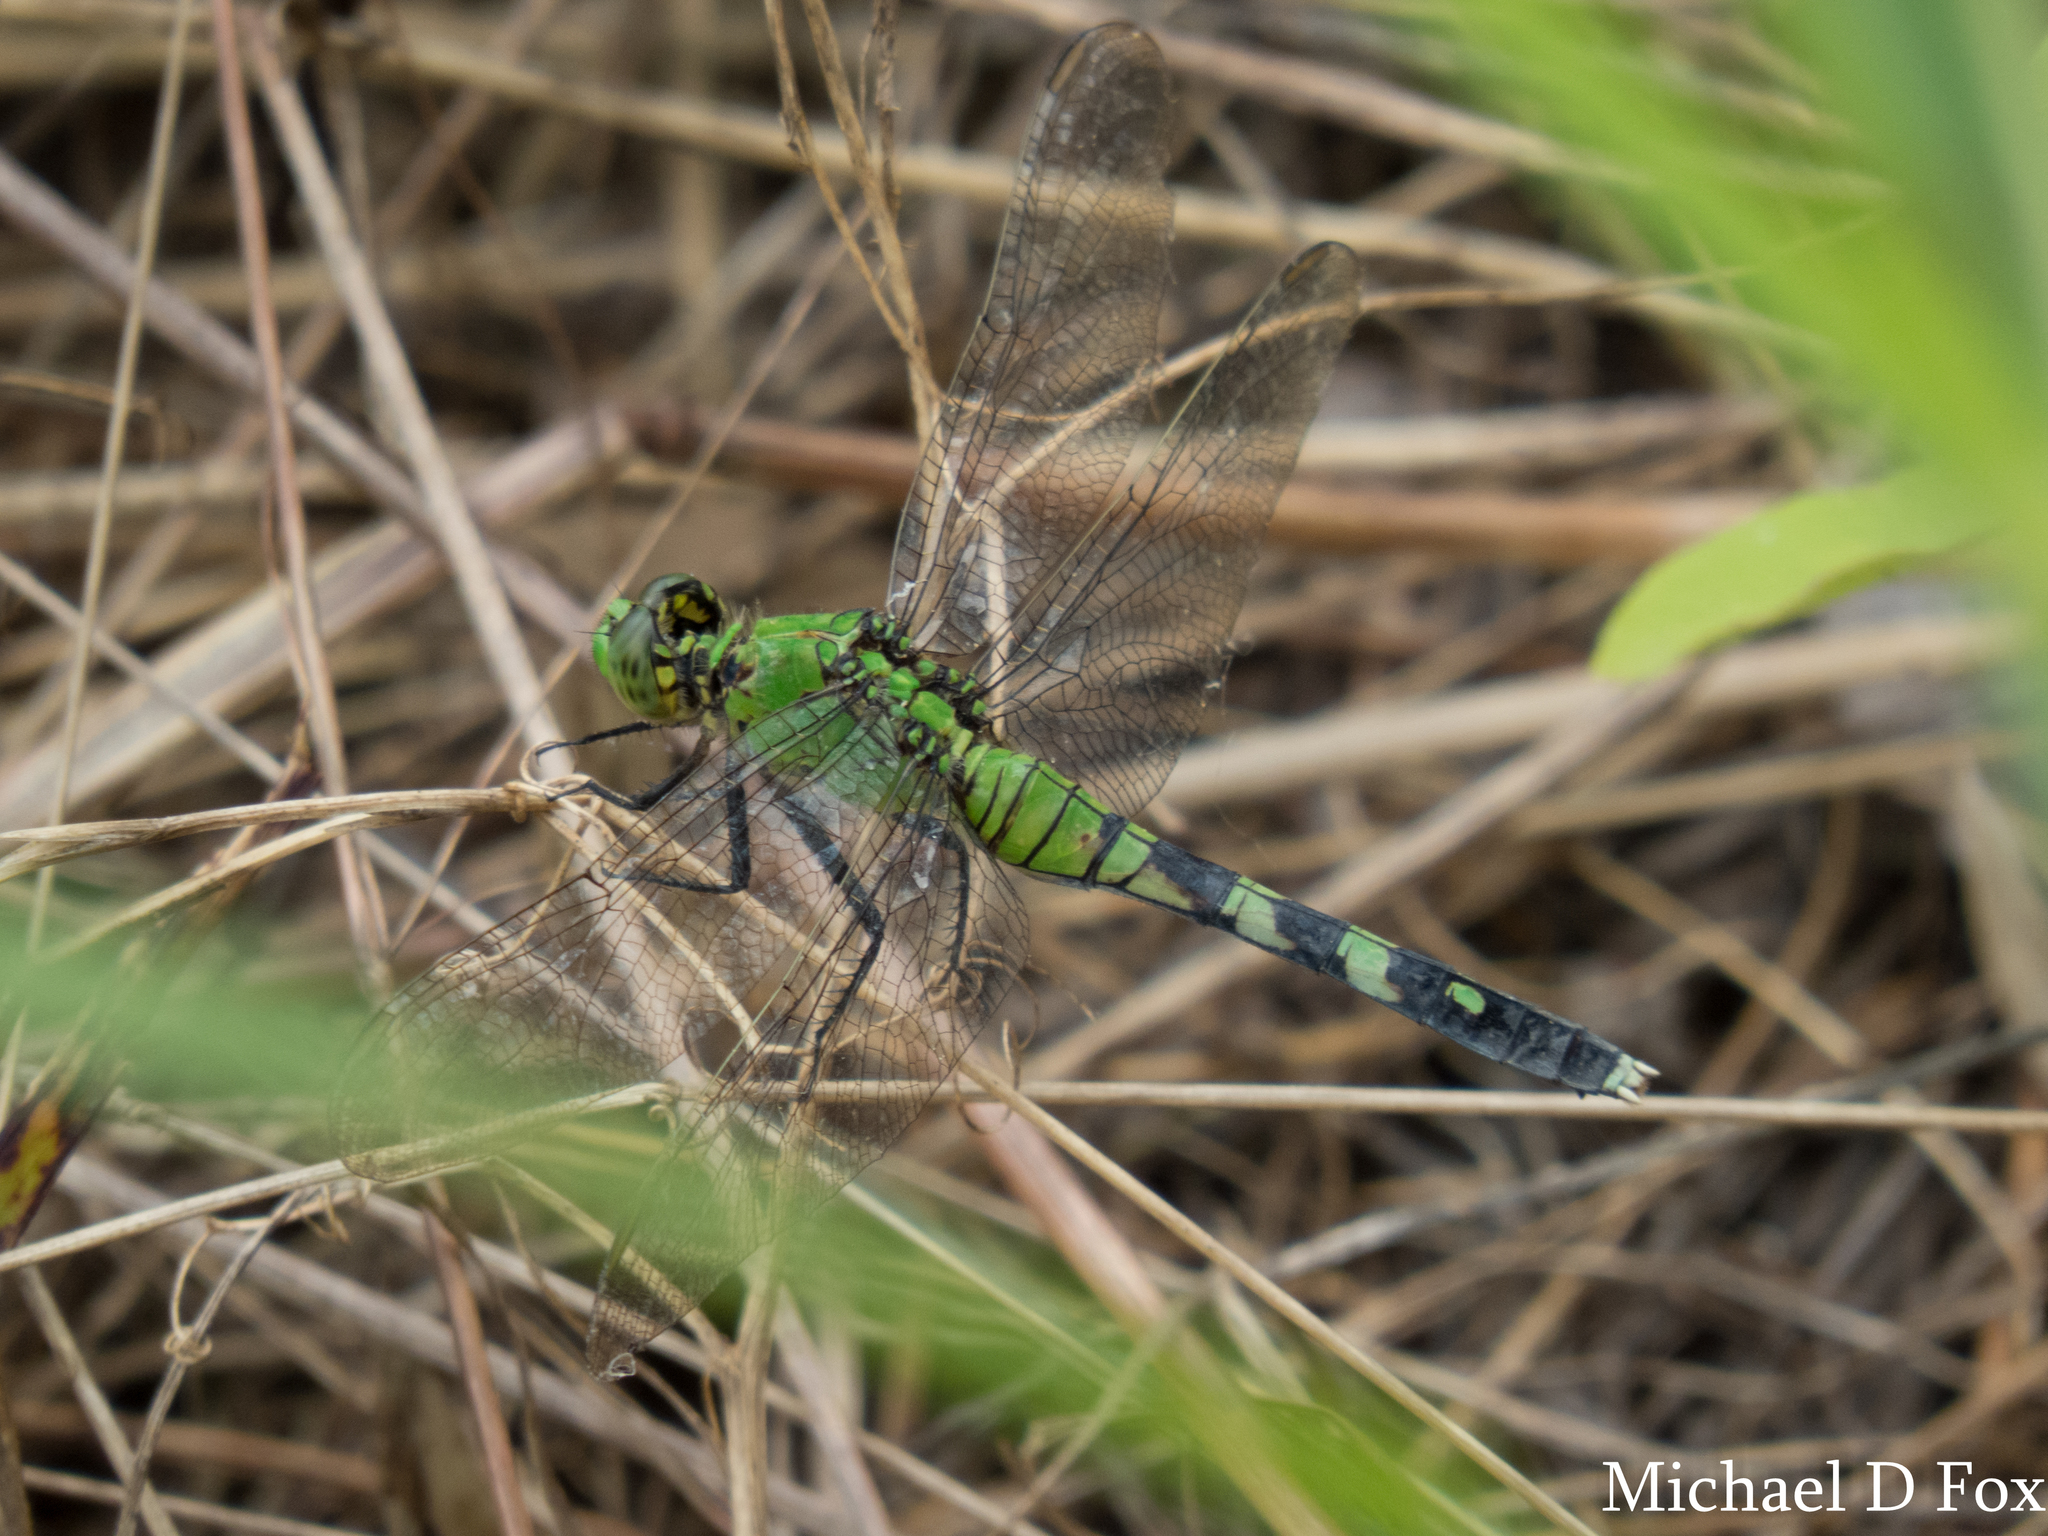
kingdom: Animalia
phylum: Arthropoda
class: Insecta
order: Odonata
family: Libellulidae
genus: Erythemis
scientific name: Erythemis simplicicollis
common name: Eastern pondhawk
